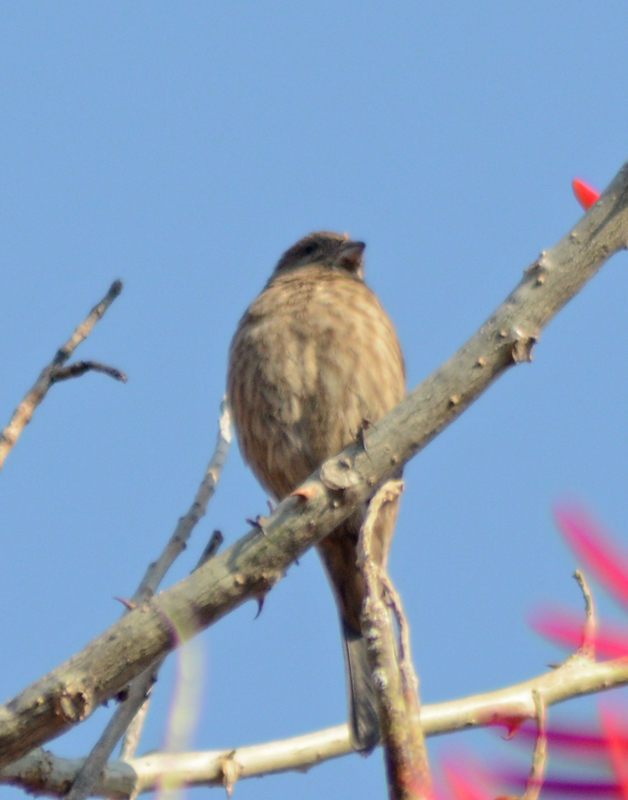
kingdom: Animalia
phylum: Chordata
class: Aves
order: Passeriformes
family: Fringillidae
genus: Haemorhous
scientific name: Haemorhous mexicanus
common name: House finch
